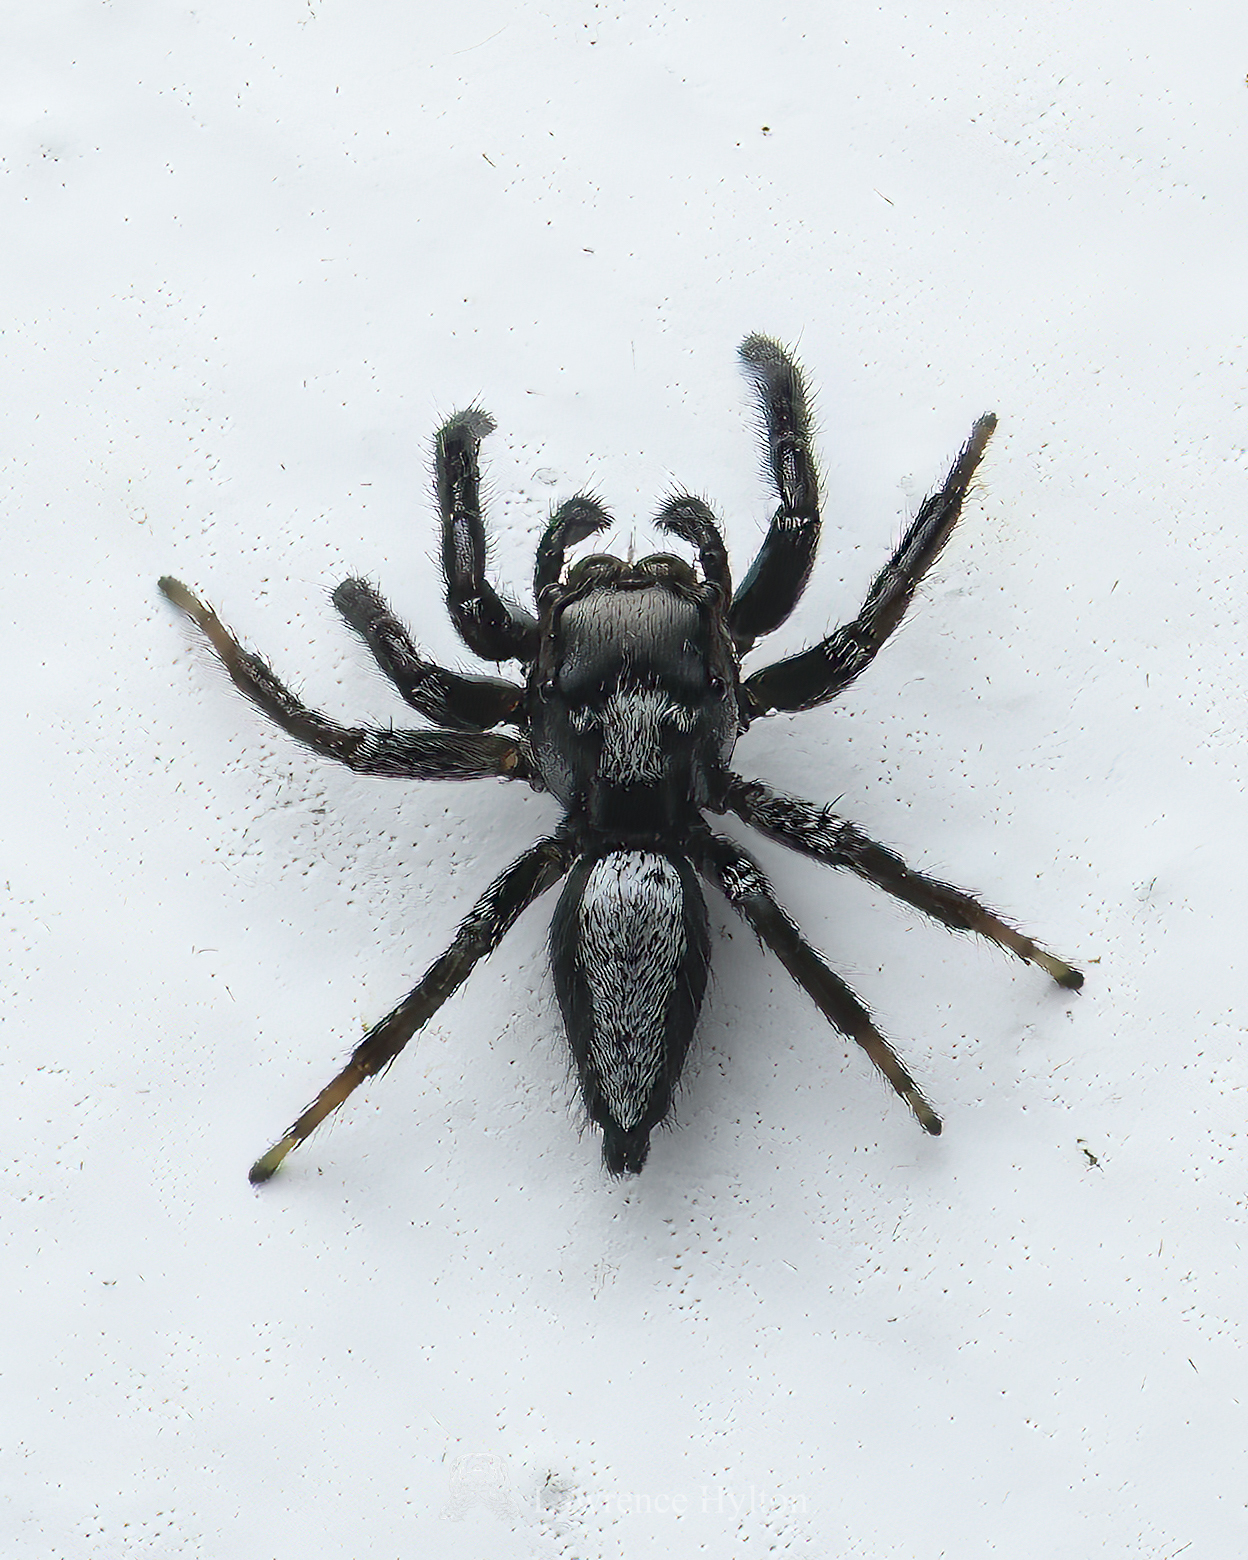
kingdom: Animalia
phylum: Arthropoda
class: Arachnida
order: Araneae
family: Salticidae
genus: Ptocasius
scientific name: Ptocasius strupifer
